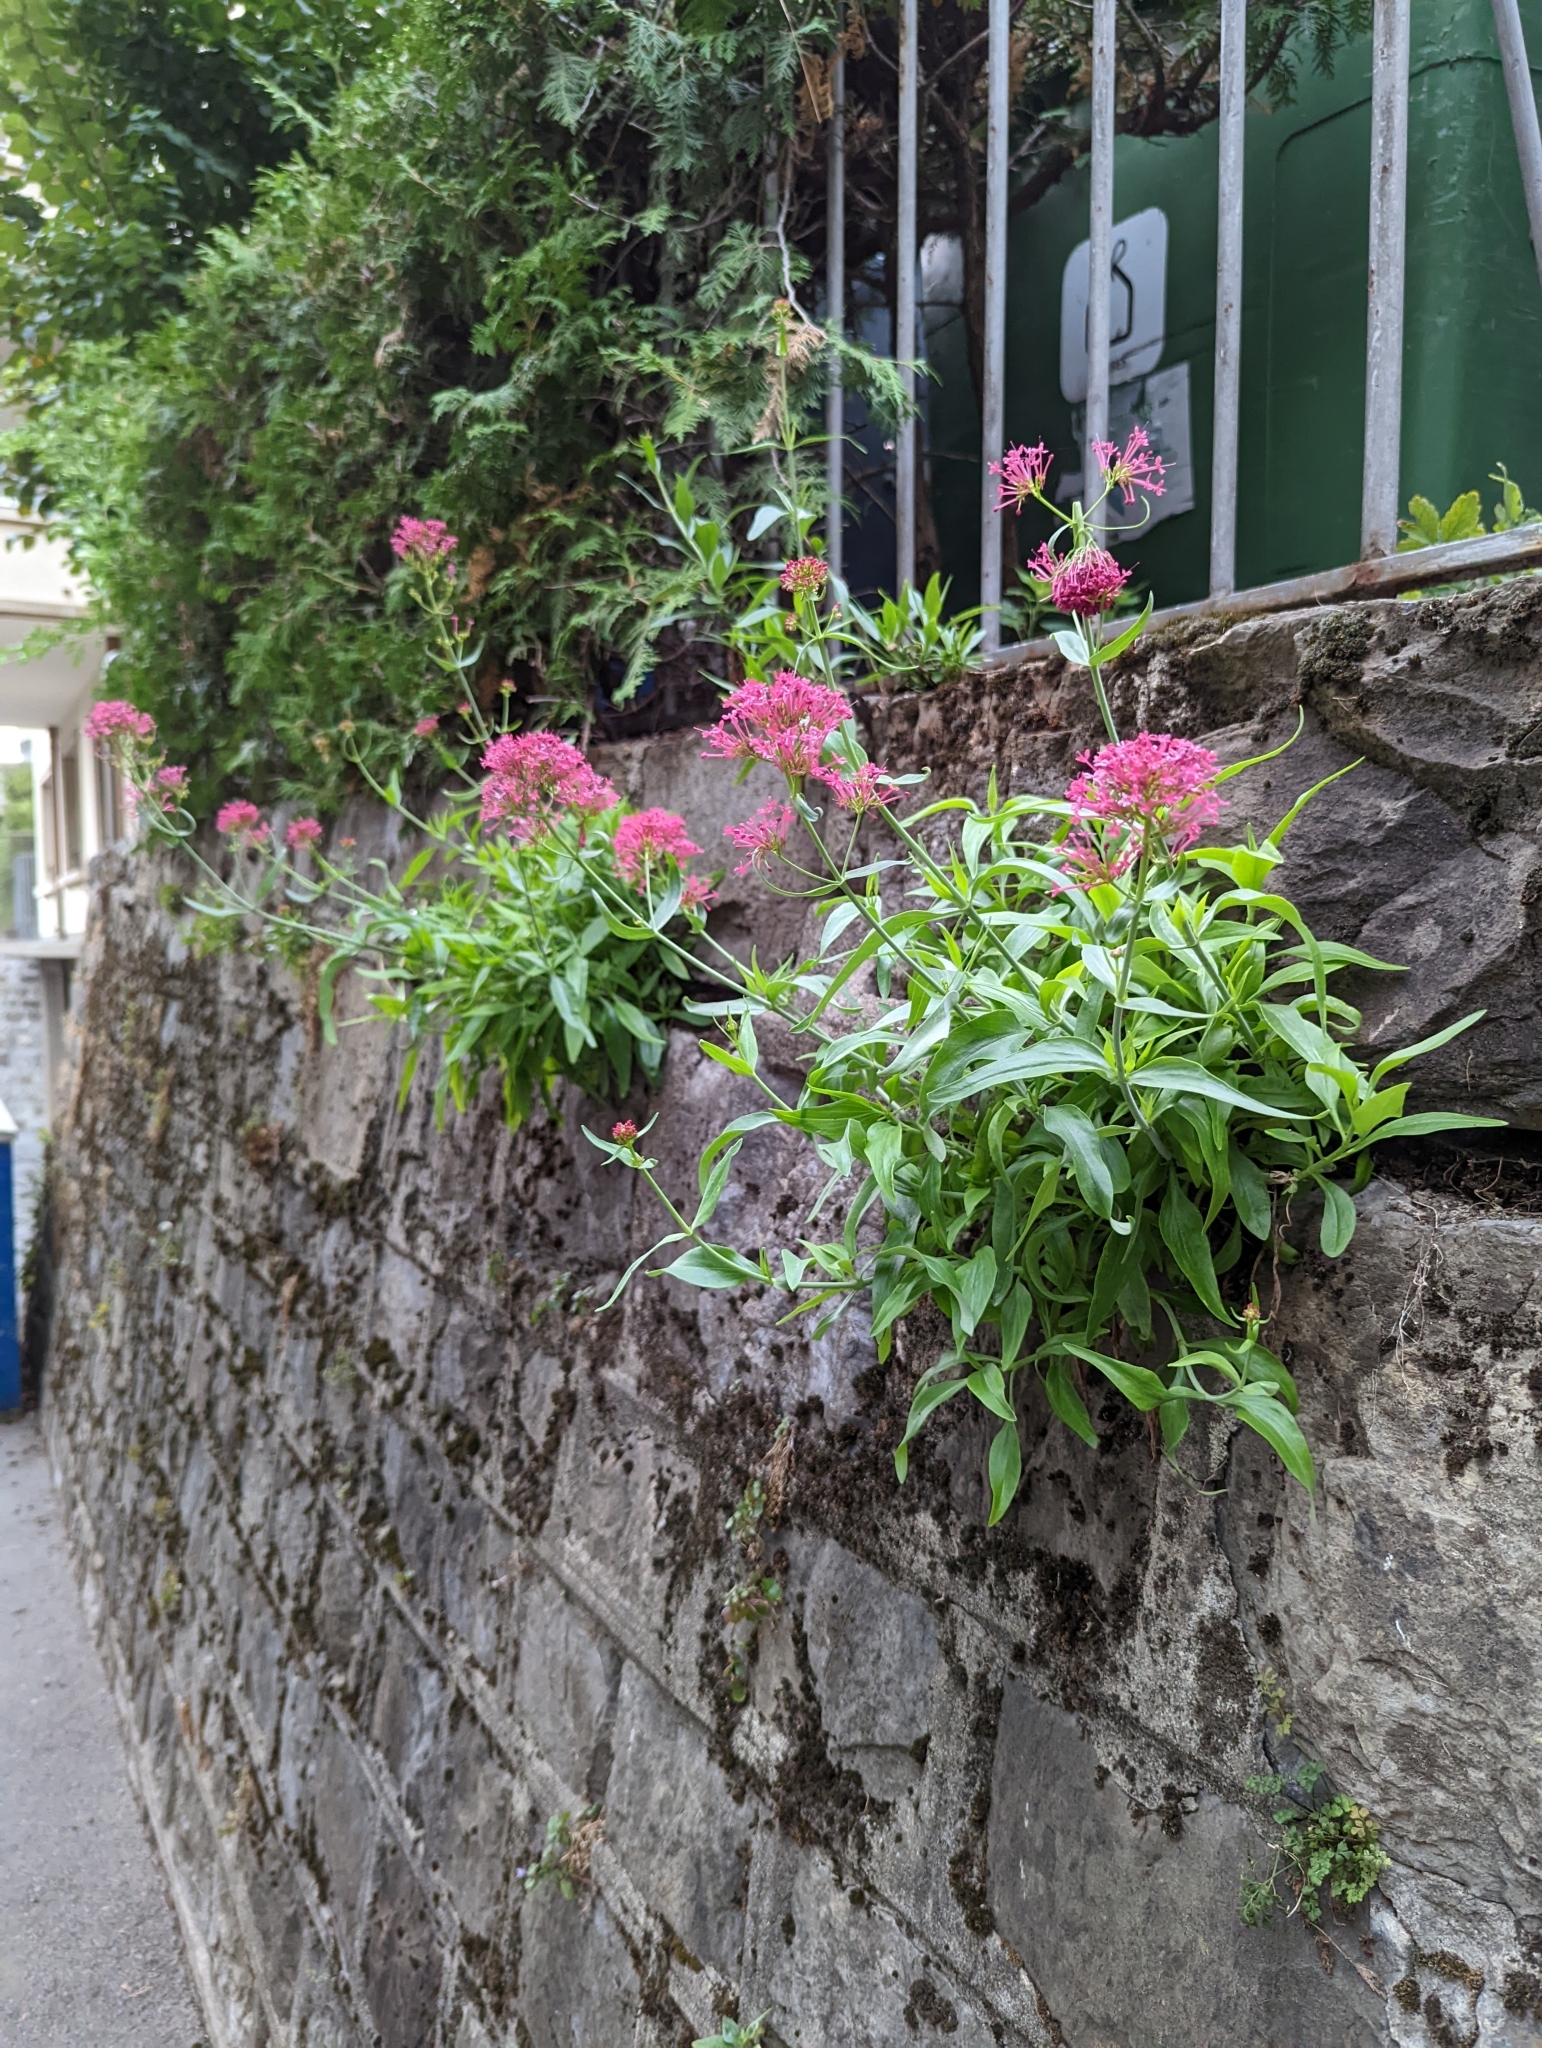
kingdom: Plantae
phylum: Tracheophyta
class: Magnoliopsida
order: Dipsacales
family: Caprifoliaceae
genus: Centranthus
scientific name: Centranthus ruber
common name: Red valerian
